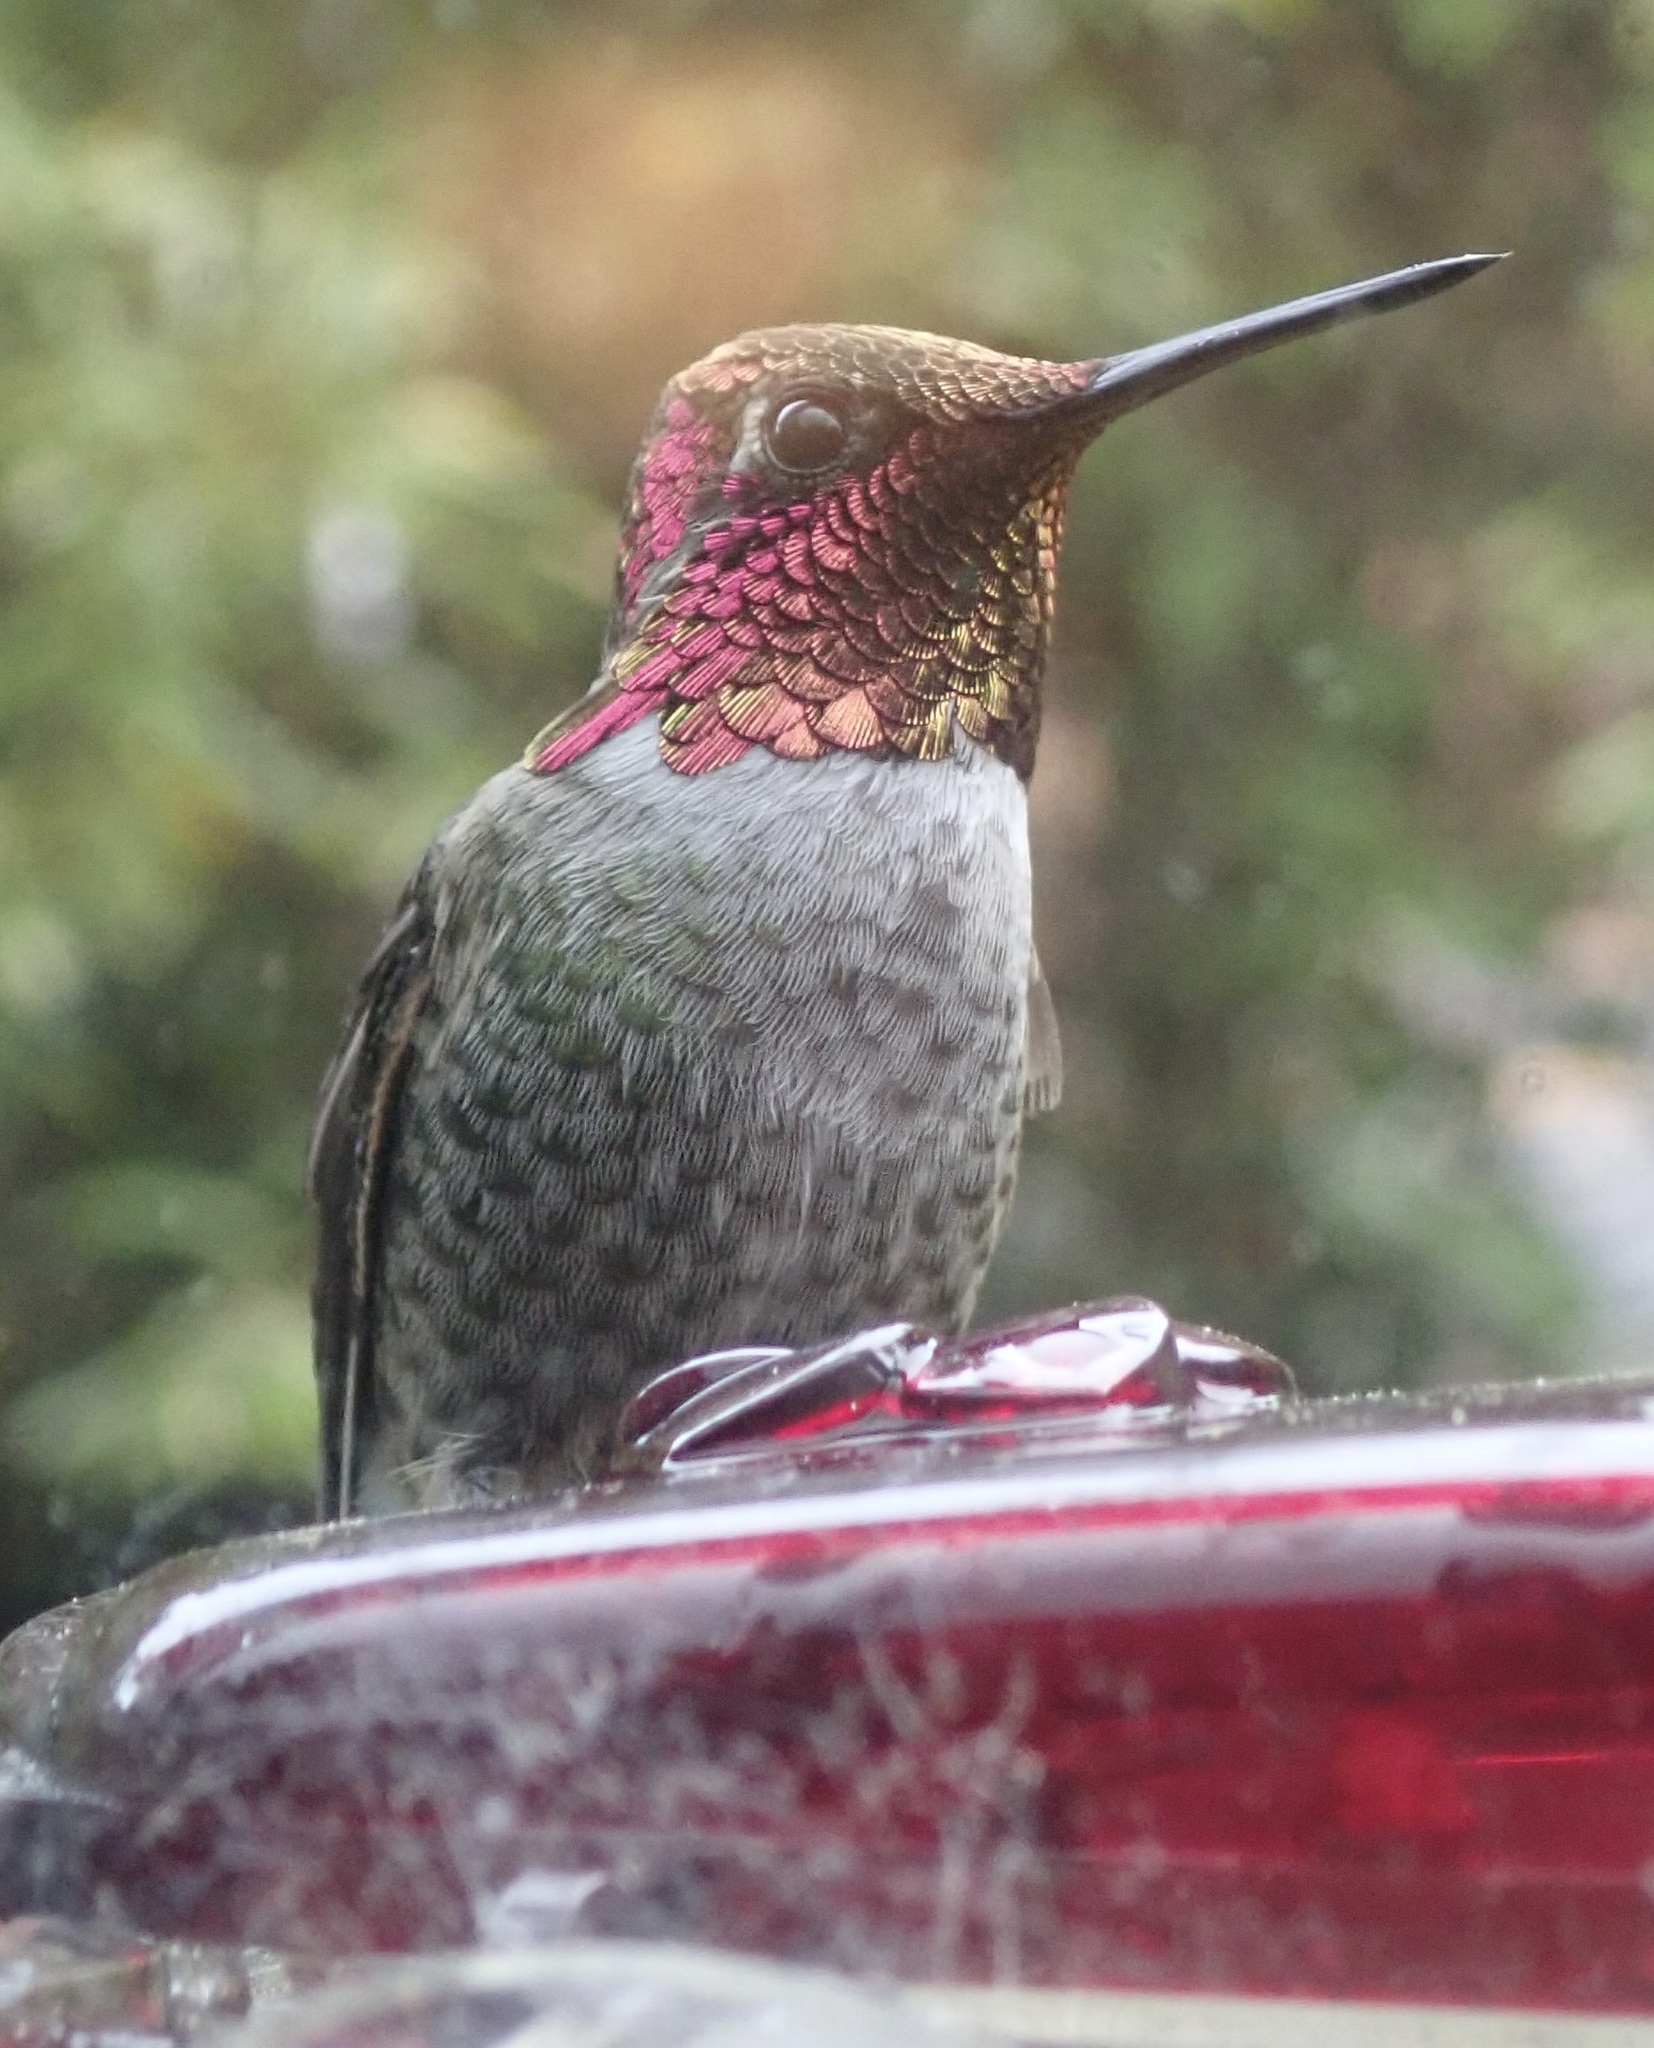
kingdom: Animalia
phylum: Chordata
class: Aves
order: Apodiformes
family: Trochilidae
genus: Calypte
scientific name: Calypte anna
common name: Anna's hummingbird
